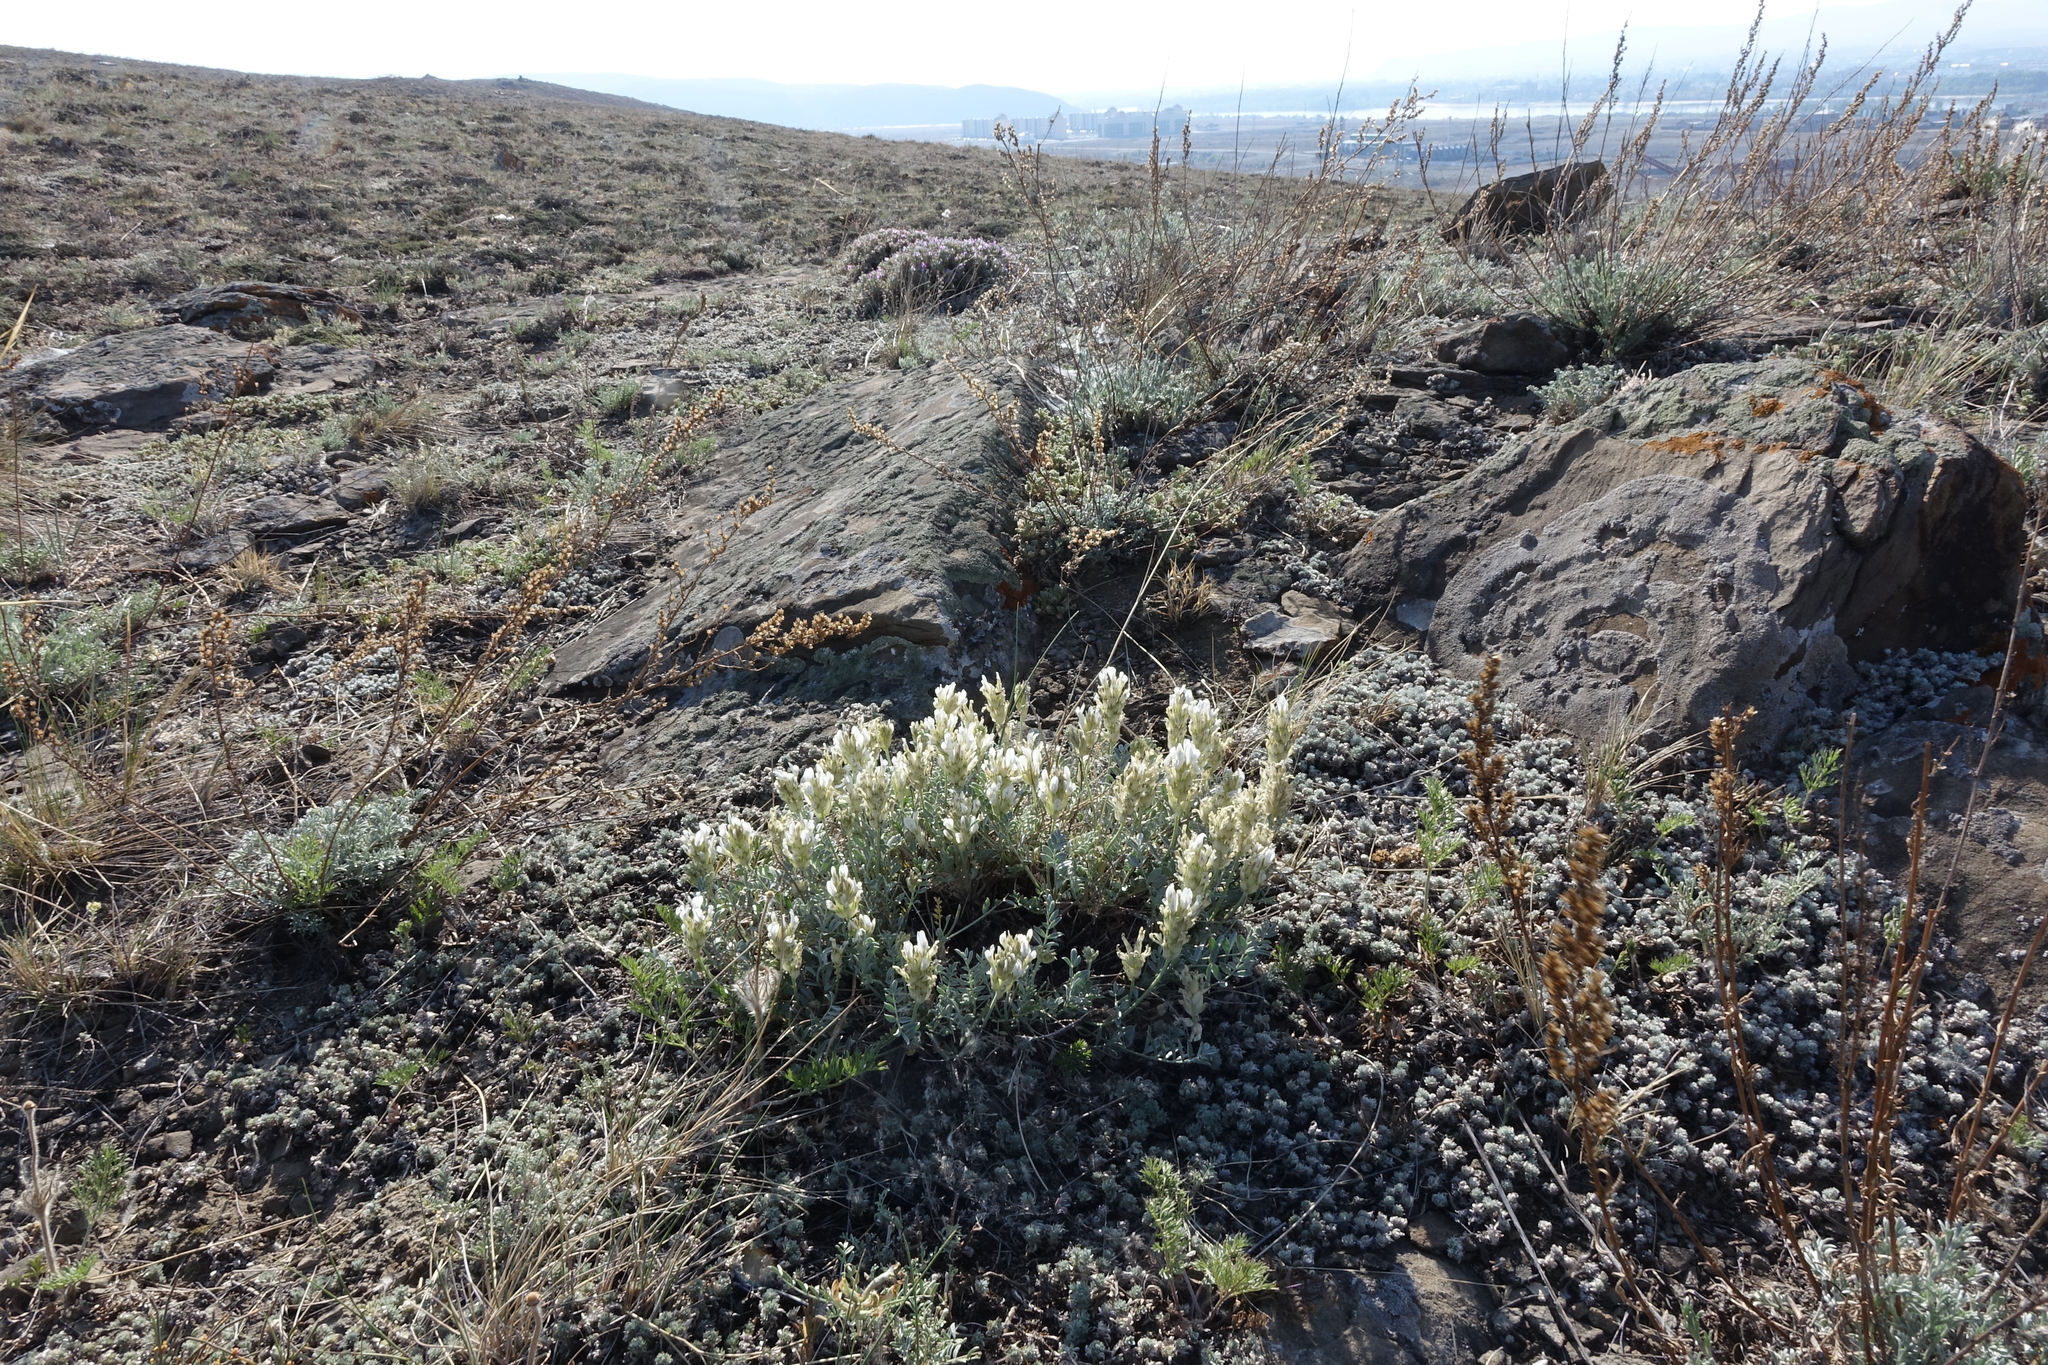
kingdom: Plantae
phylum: Tracheophyta
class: Magnoliopsida
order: Fabales
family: Fabaceae
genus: Astragalus
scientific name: Astragalus dilutus
